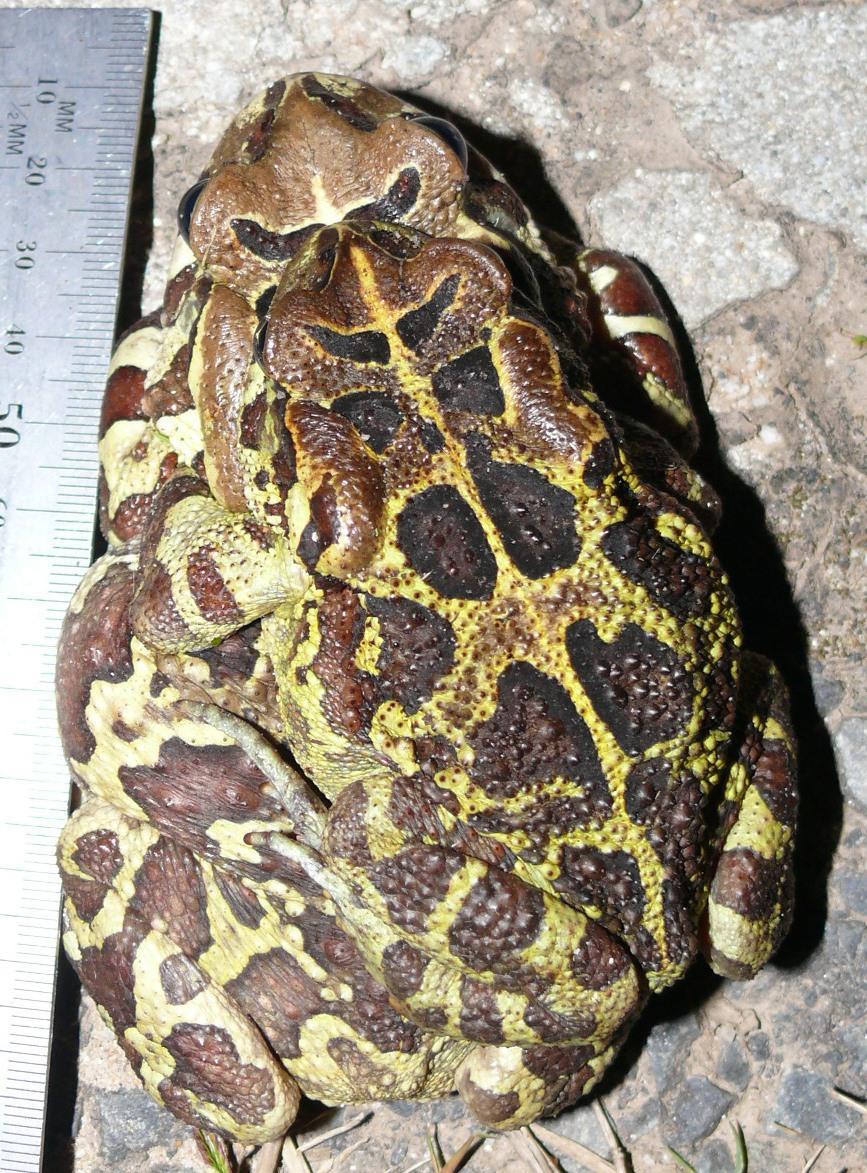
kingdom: Animalia
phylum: Chordata
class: Amphibia
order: Anura
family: Bufonidae
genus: Sclerophrys
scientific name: Sclerophrys pantherina
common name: Panther toad
